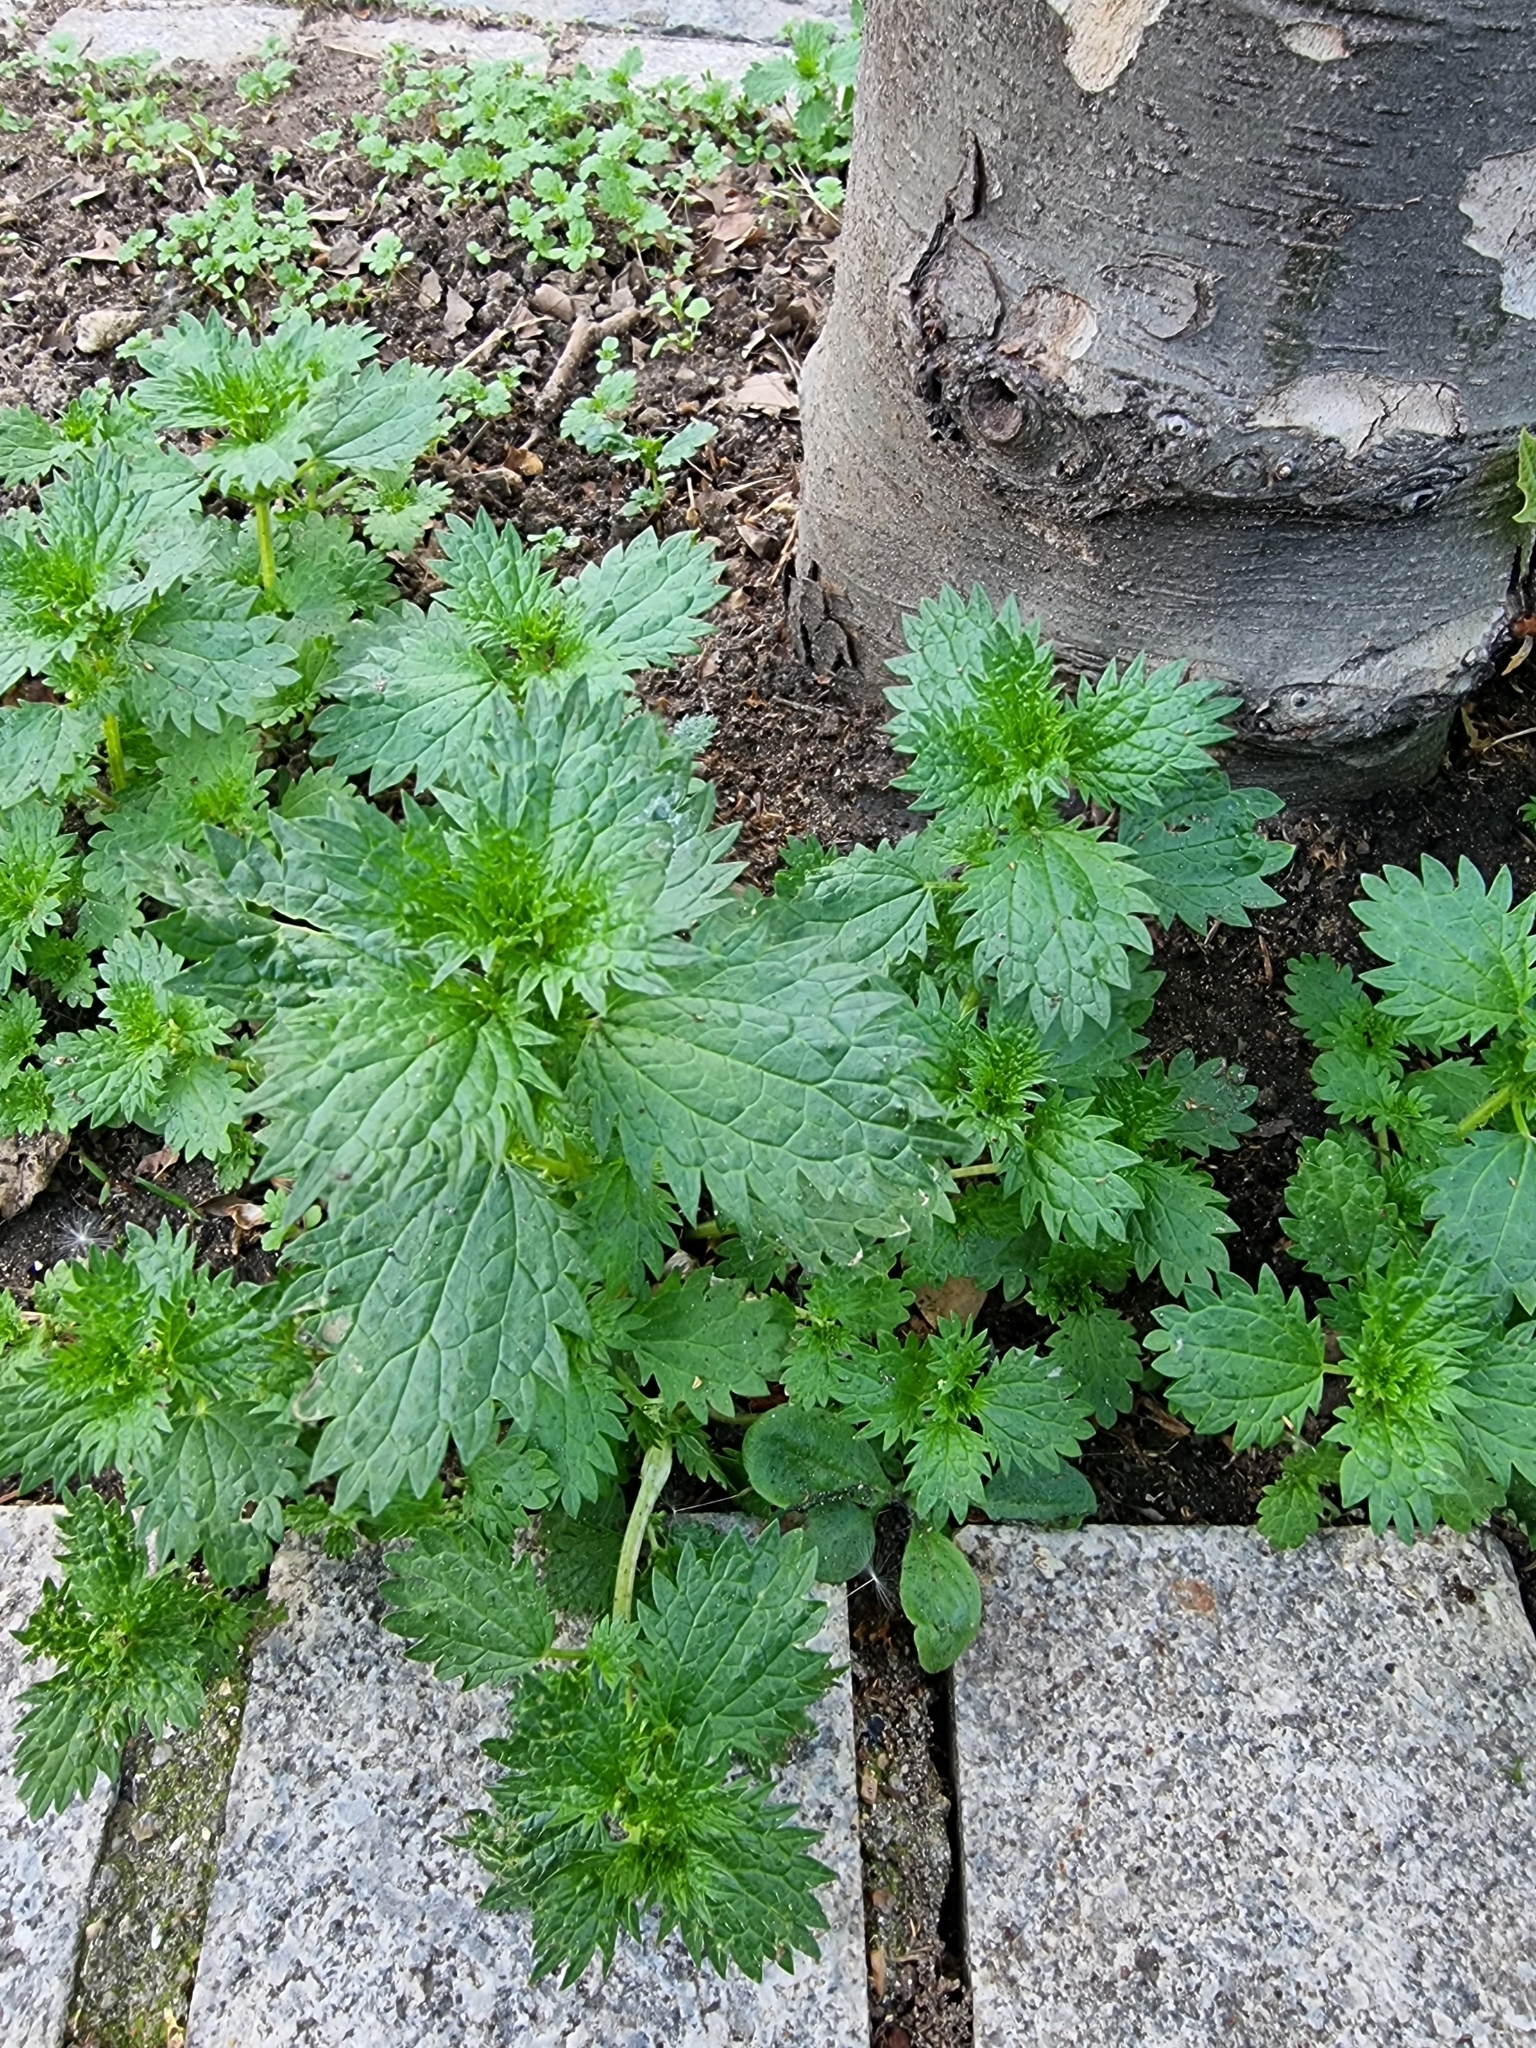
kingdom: Plantae
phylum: Tracheophyta
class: Magnoliopsida
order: Rosales
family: Urticaceae
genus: Urtica
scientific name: Urtica urens
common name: Dwarf nettle
